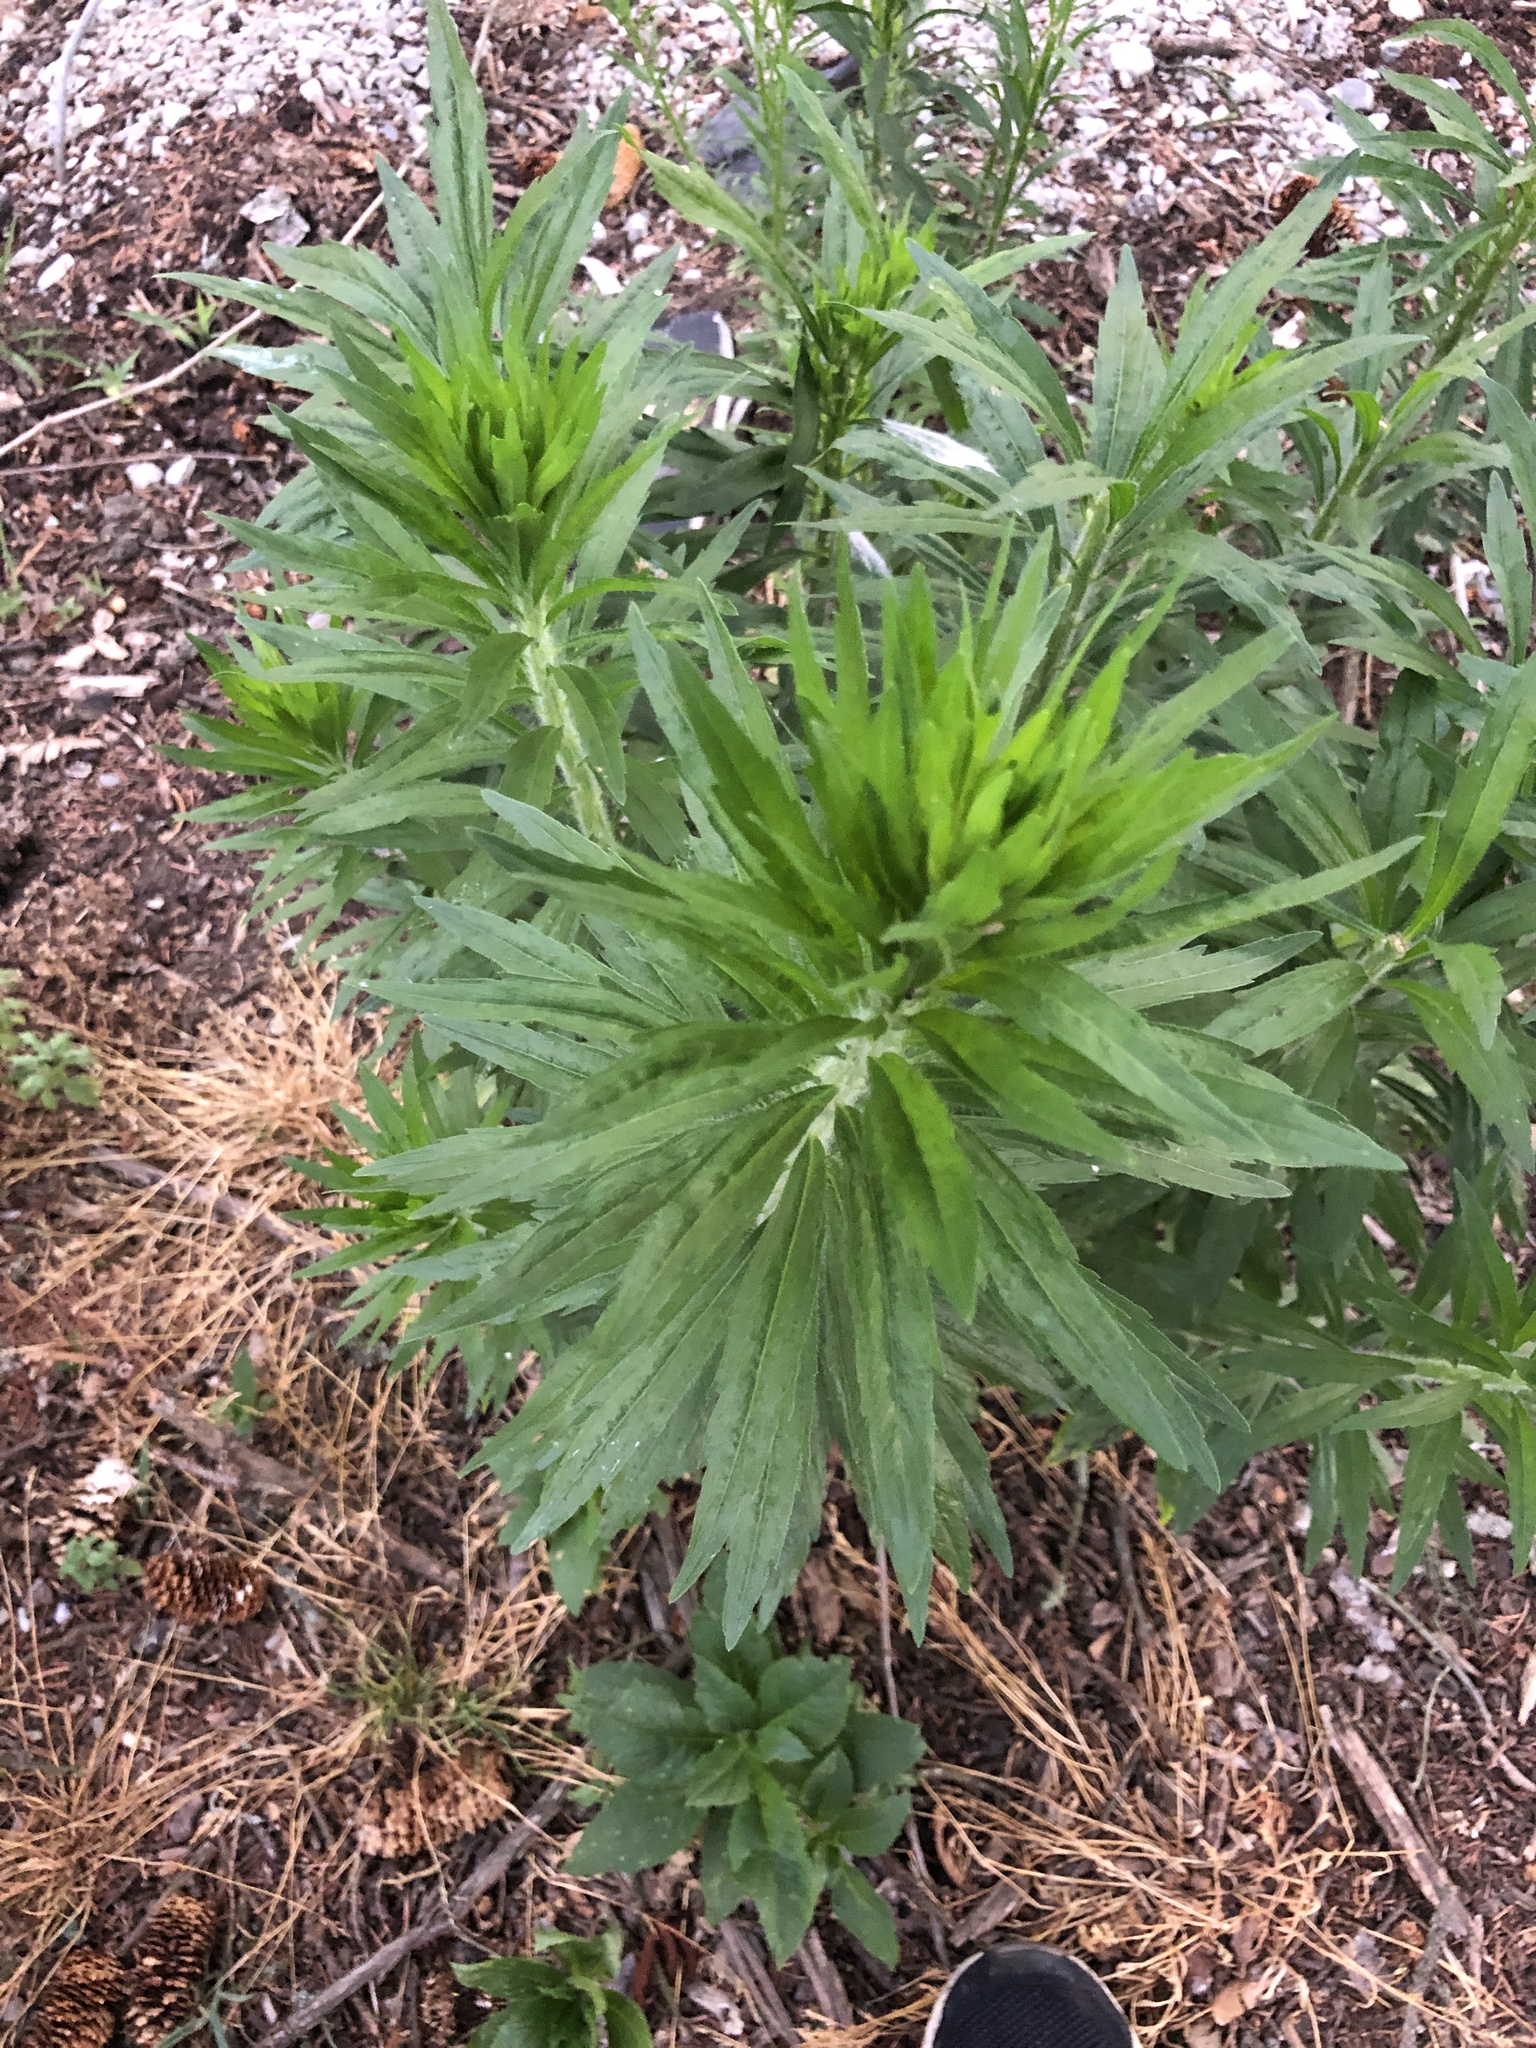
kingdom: Plantae
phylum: Tracheophyta
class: Magnoliopsida
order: Asterales
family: Asteraceae
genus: Erigeron
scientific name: Erigeron canadensis
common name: Canadian fleabane
